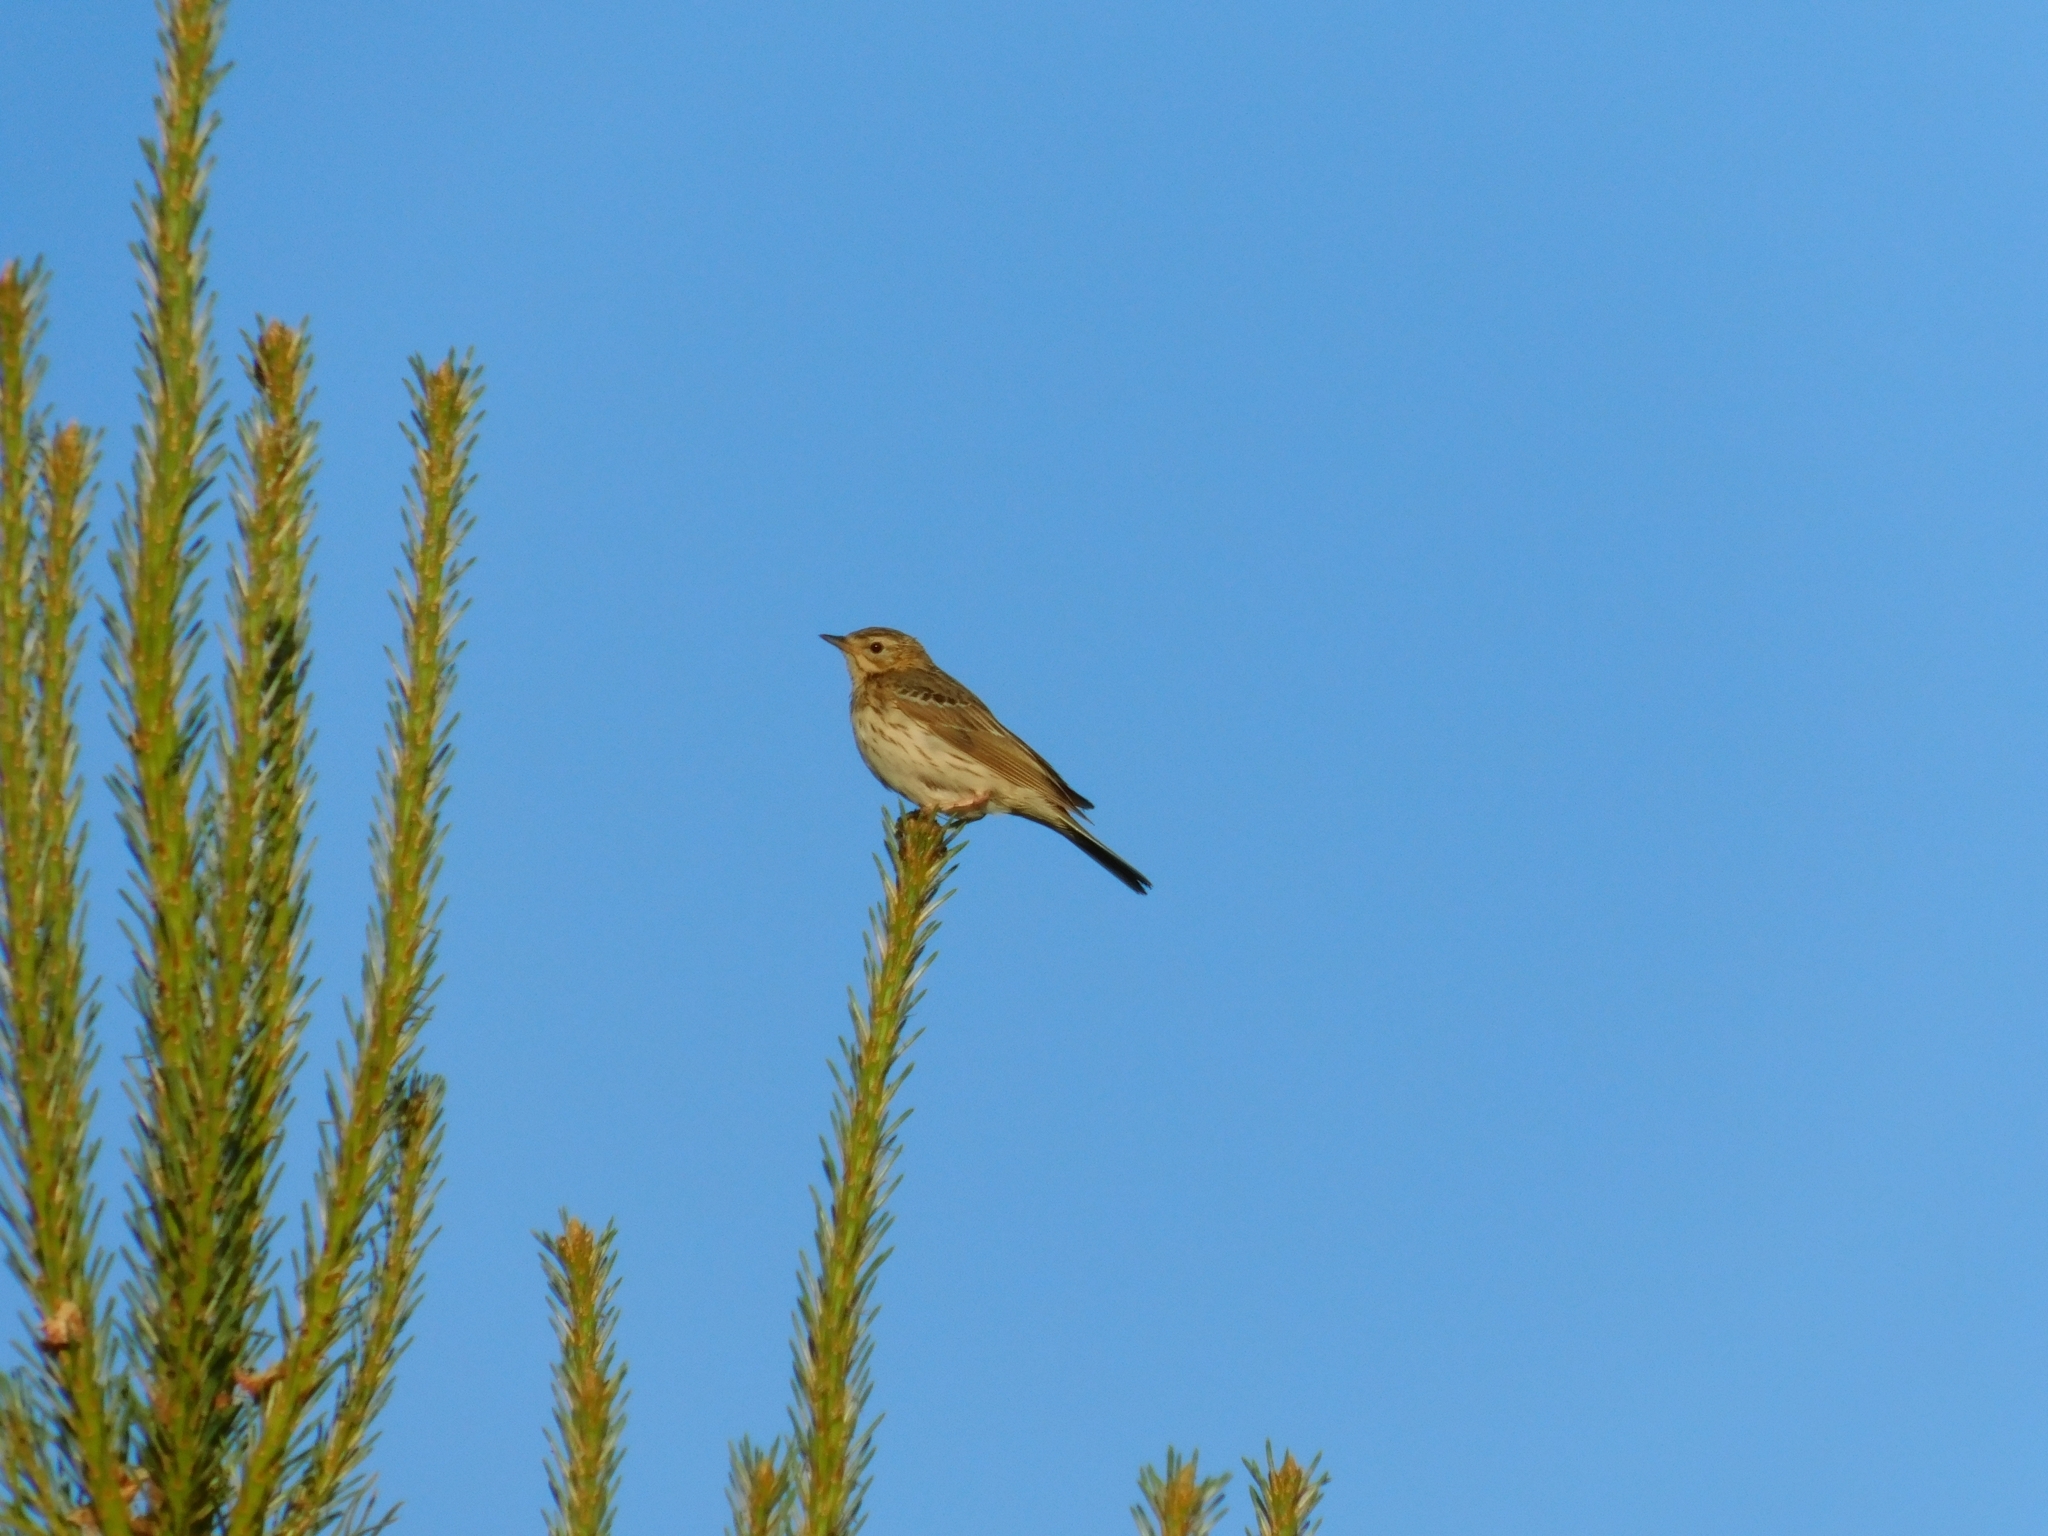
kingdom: Animalia
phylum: Chordata
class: Aves
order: Passeriformes
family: Motacillidae
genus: Anthus
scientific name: Anthus trivialis
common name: Tree pipit
